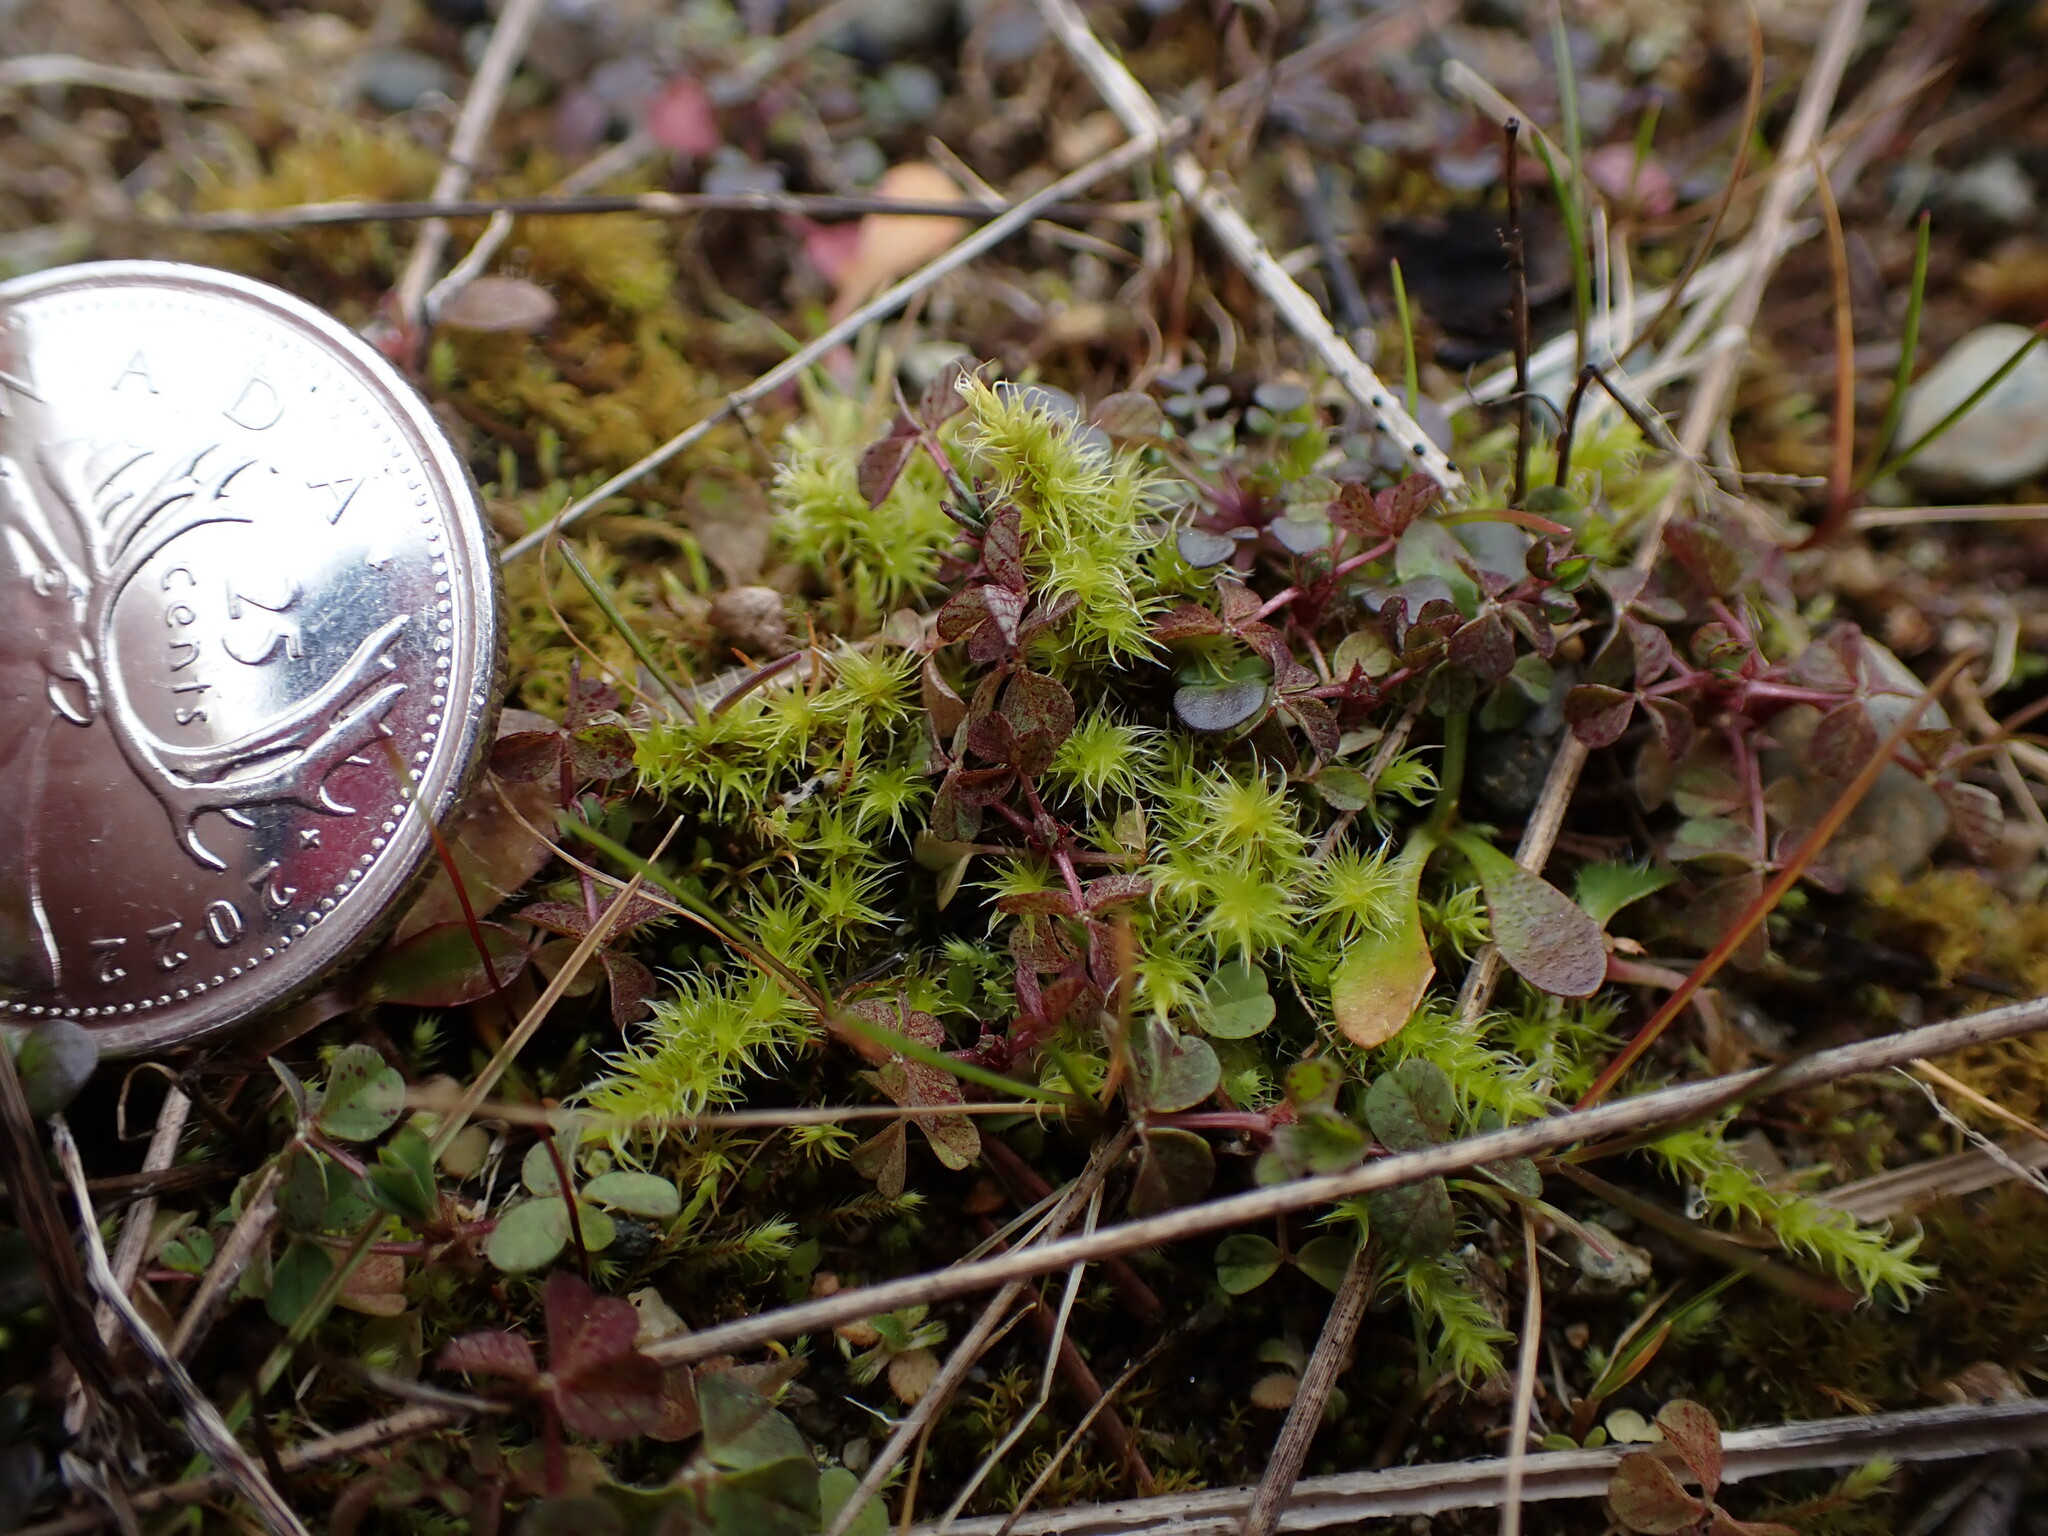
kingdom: Plantae
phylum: Bryophyta
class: Bryopsida
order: Grimmiales
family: Grimmiaceae
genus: Niphotrichum
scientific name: Niphotrichum elongatum
